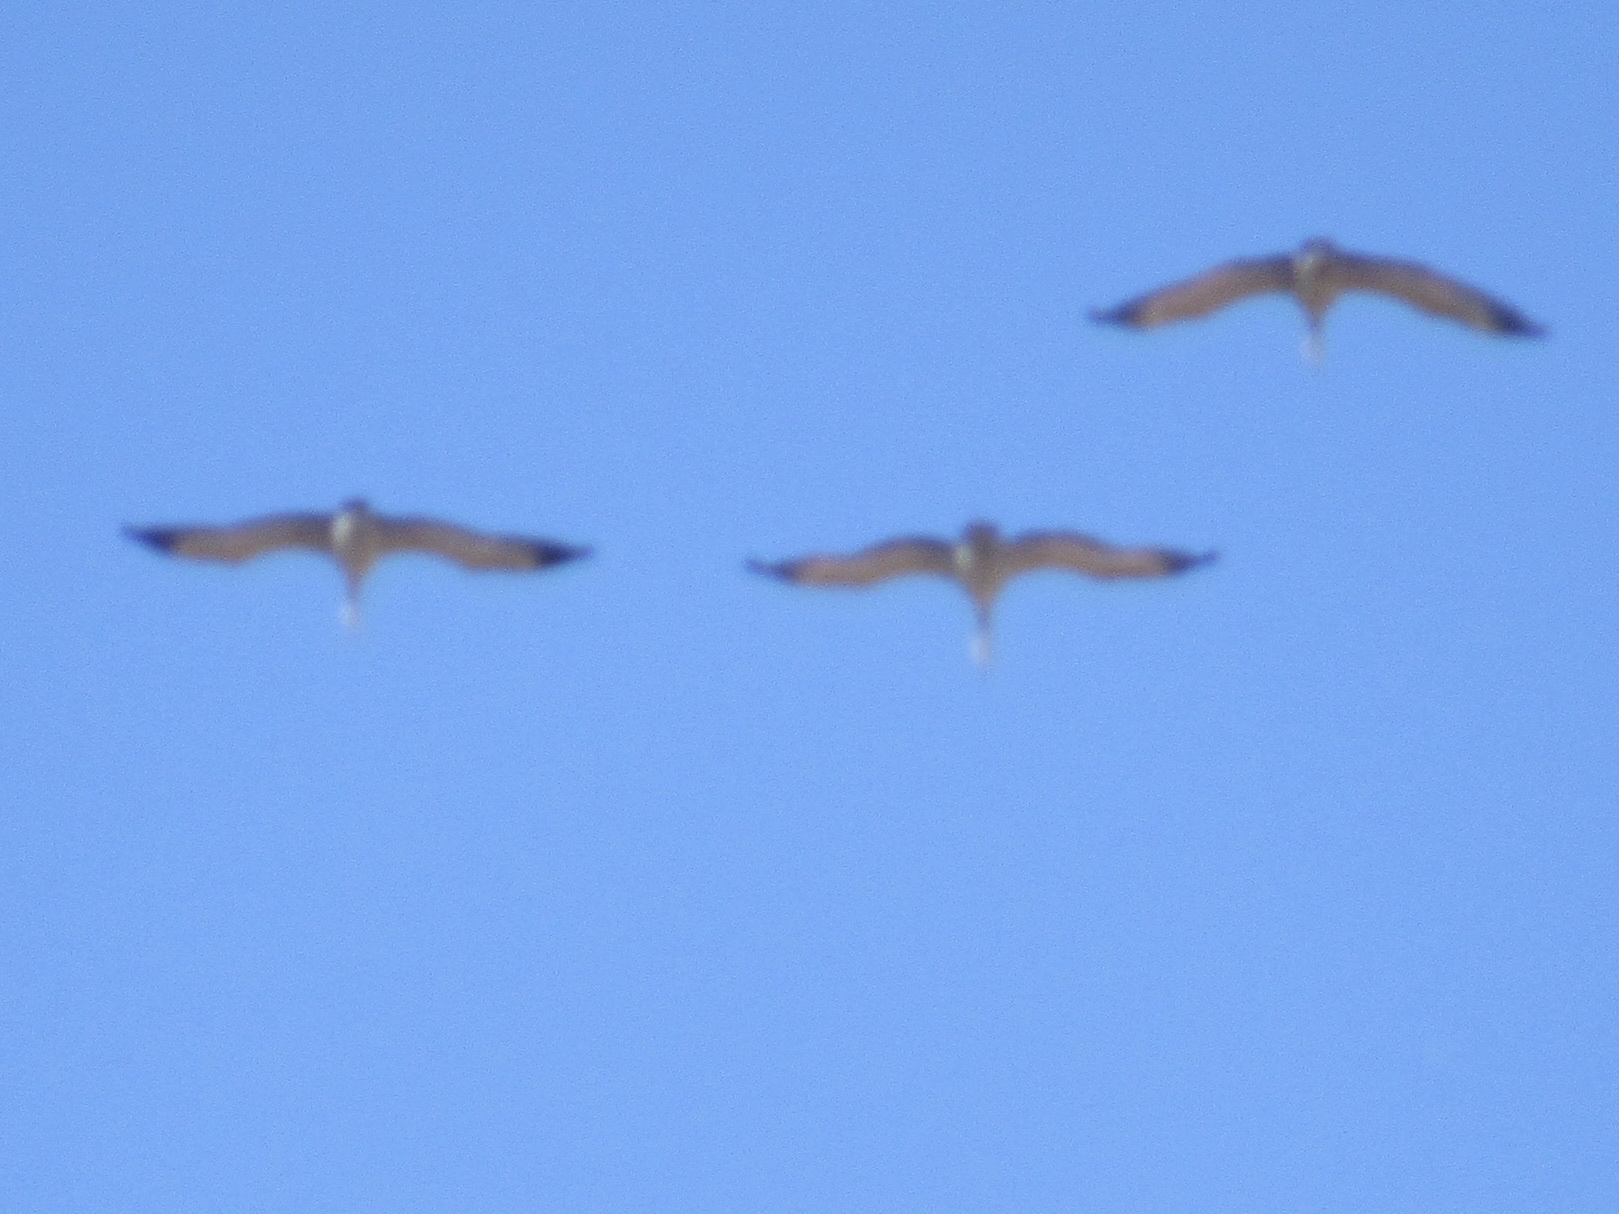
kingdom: Animalia
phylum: Chordata
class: Aves
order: Gruiformes
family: Gruidae
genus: Grus
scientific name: Grus canadensis
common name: Sandhill crane
